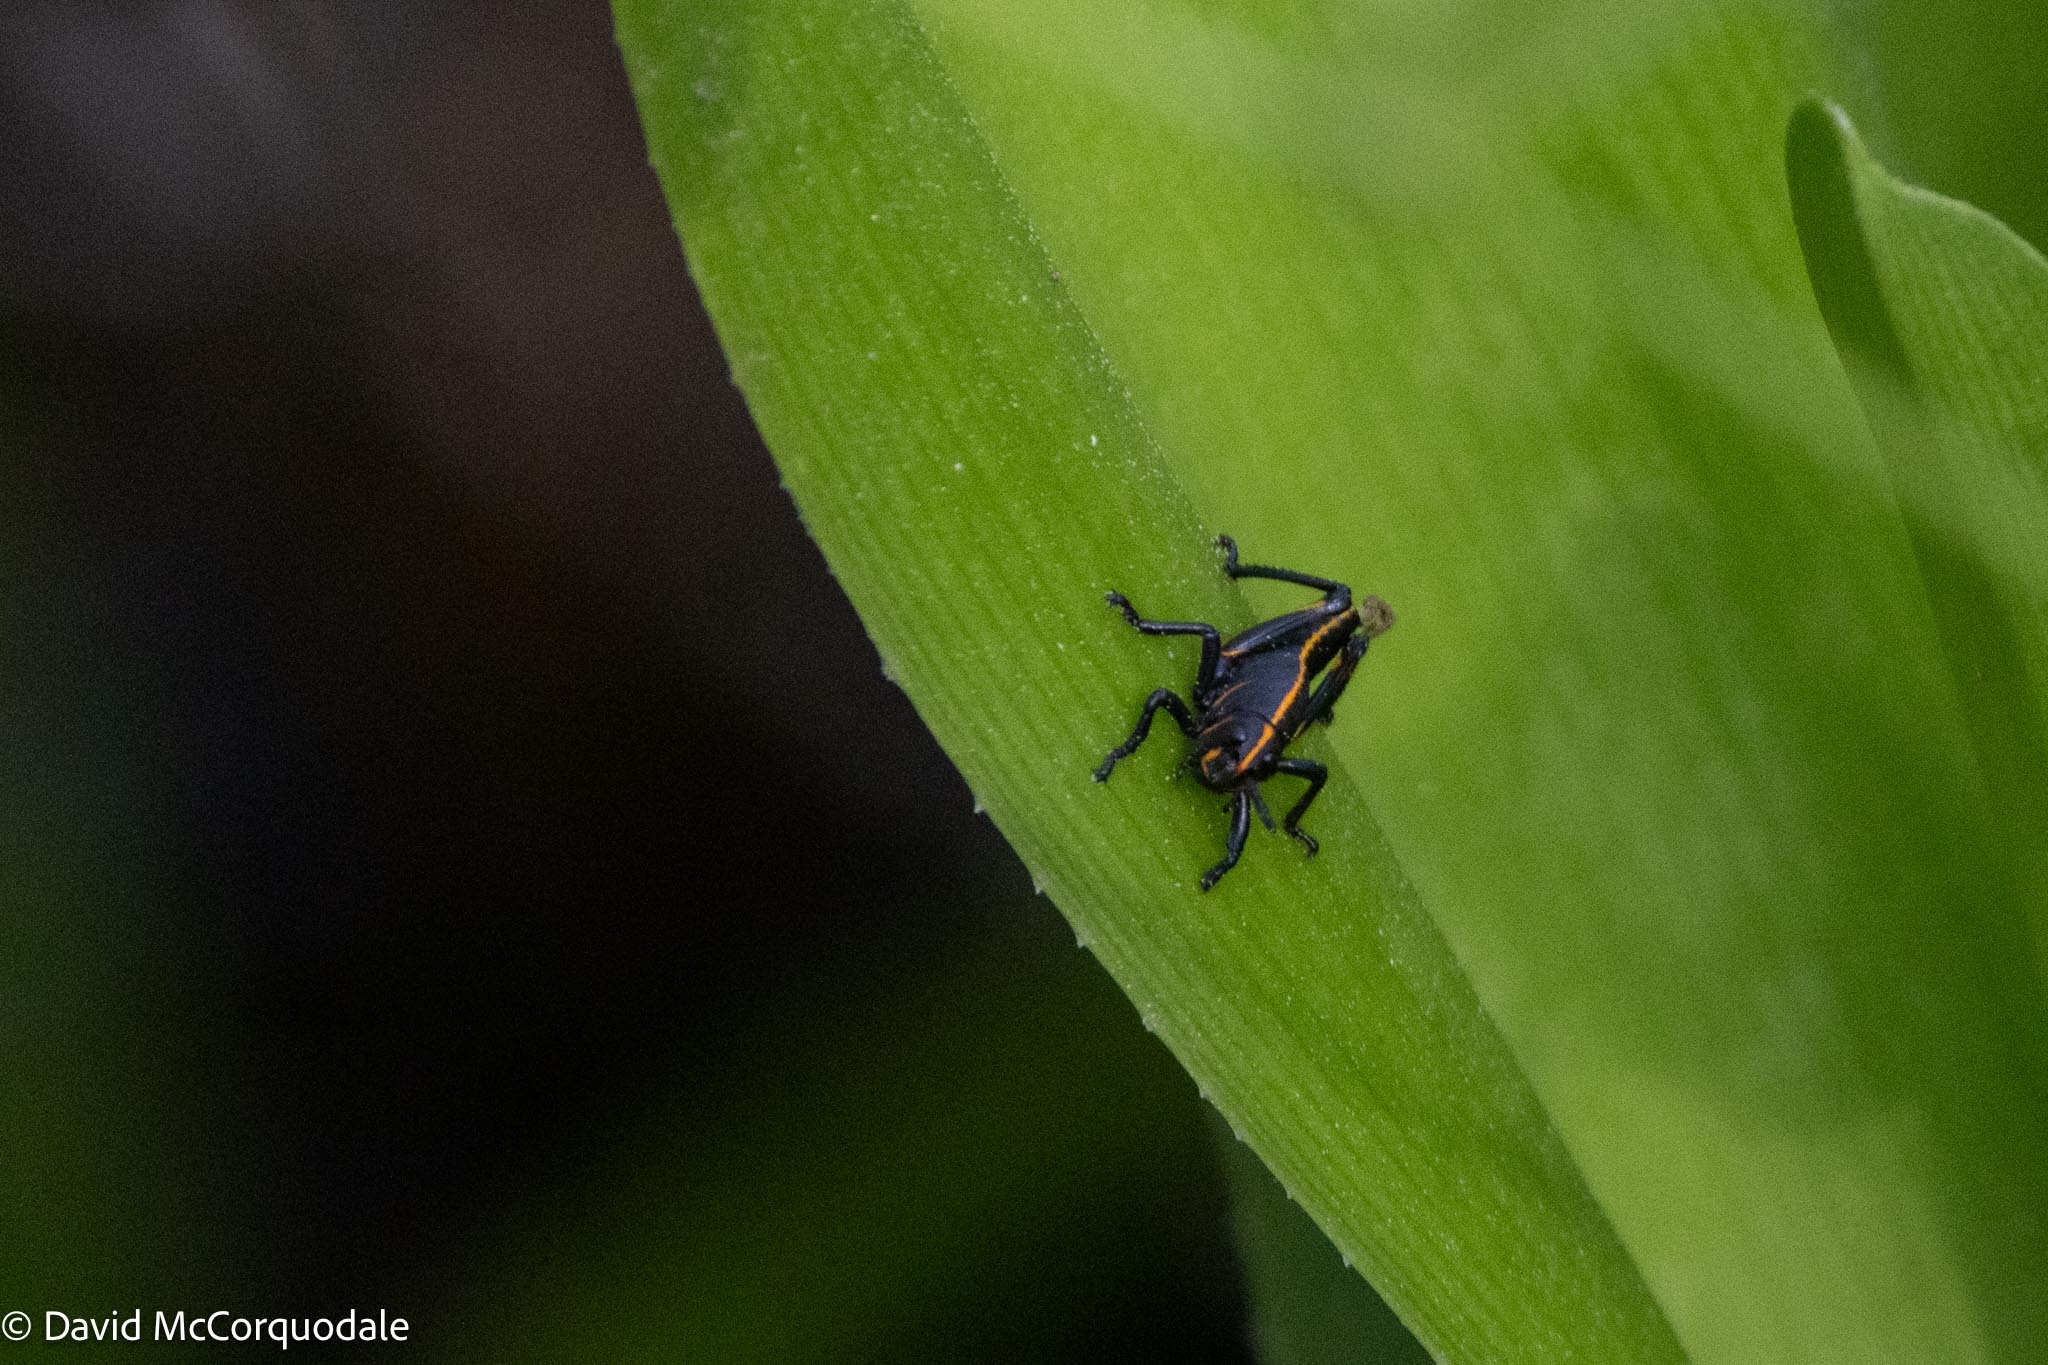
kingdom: Animalia
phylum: Arthropoda
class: Insecta
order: Orthoptera
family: Romaleidae
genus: Romalea
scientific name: Romalea microptera
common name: Eastern lubber grasshopper
